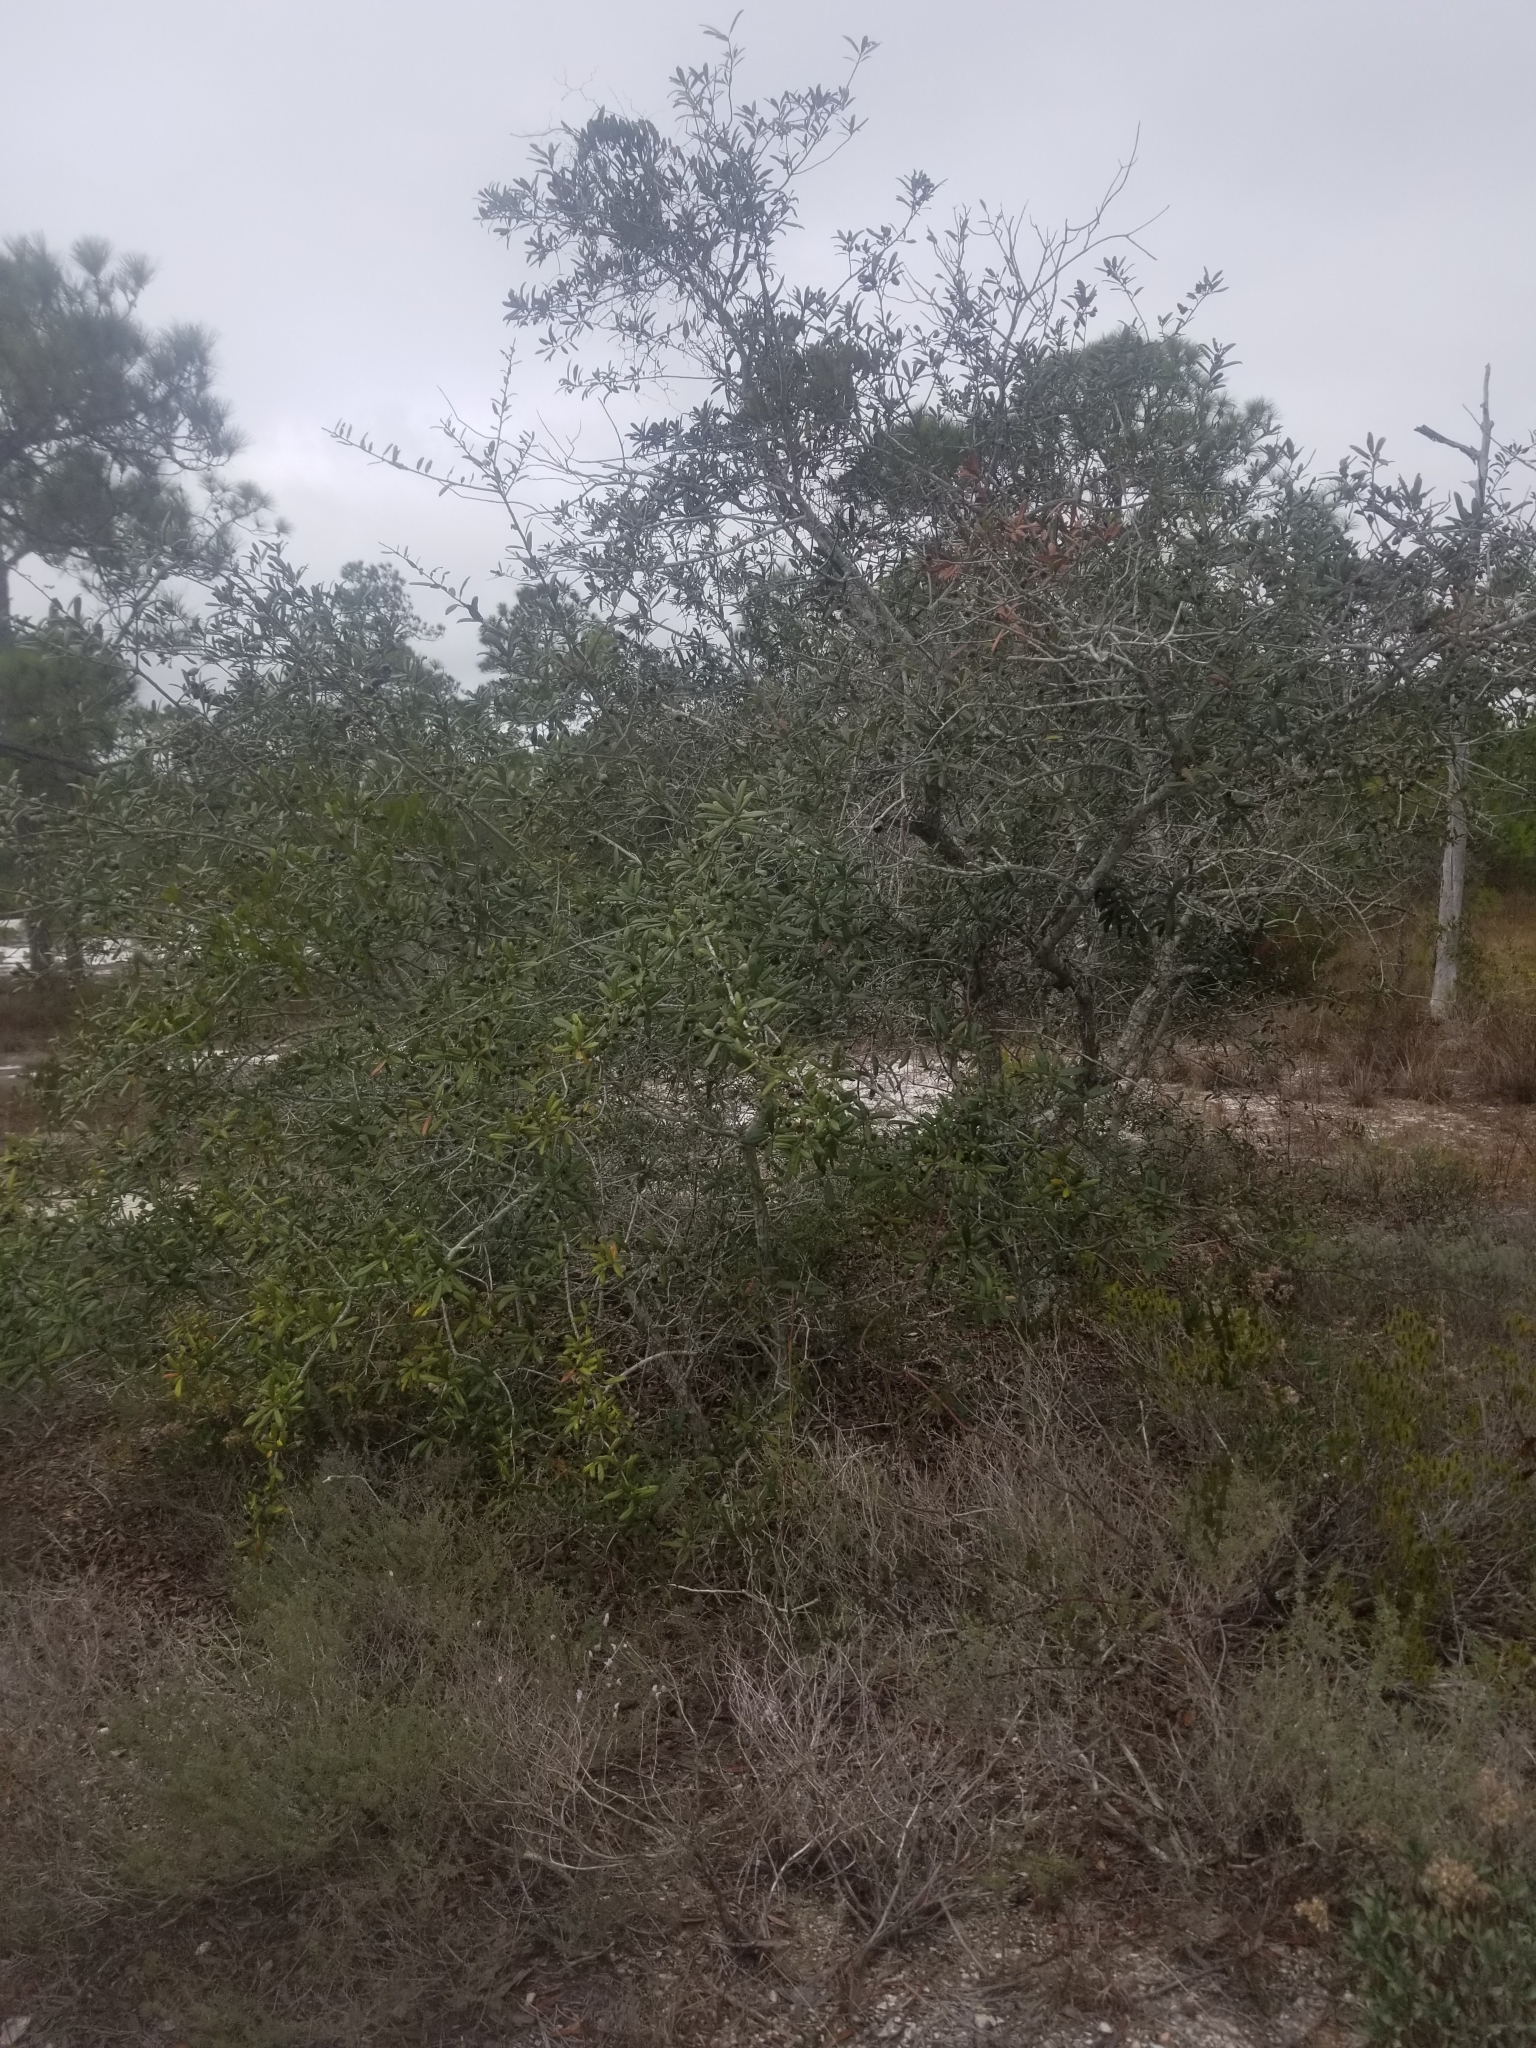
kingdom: Plantae
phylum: Tracheophyta
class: Magnoliopsida
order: Fagales
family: Fagaceae
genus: Quercus
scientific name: Quercus geminata
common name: Sand live oak
